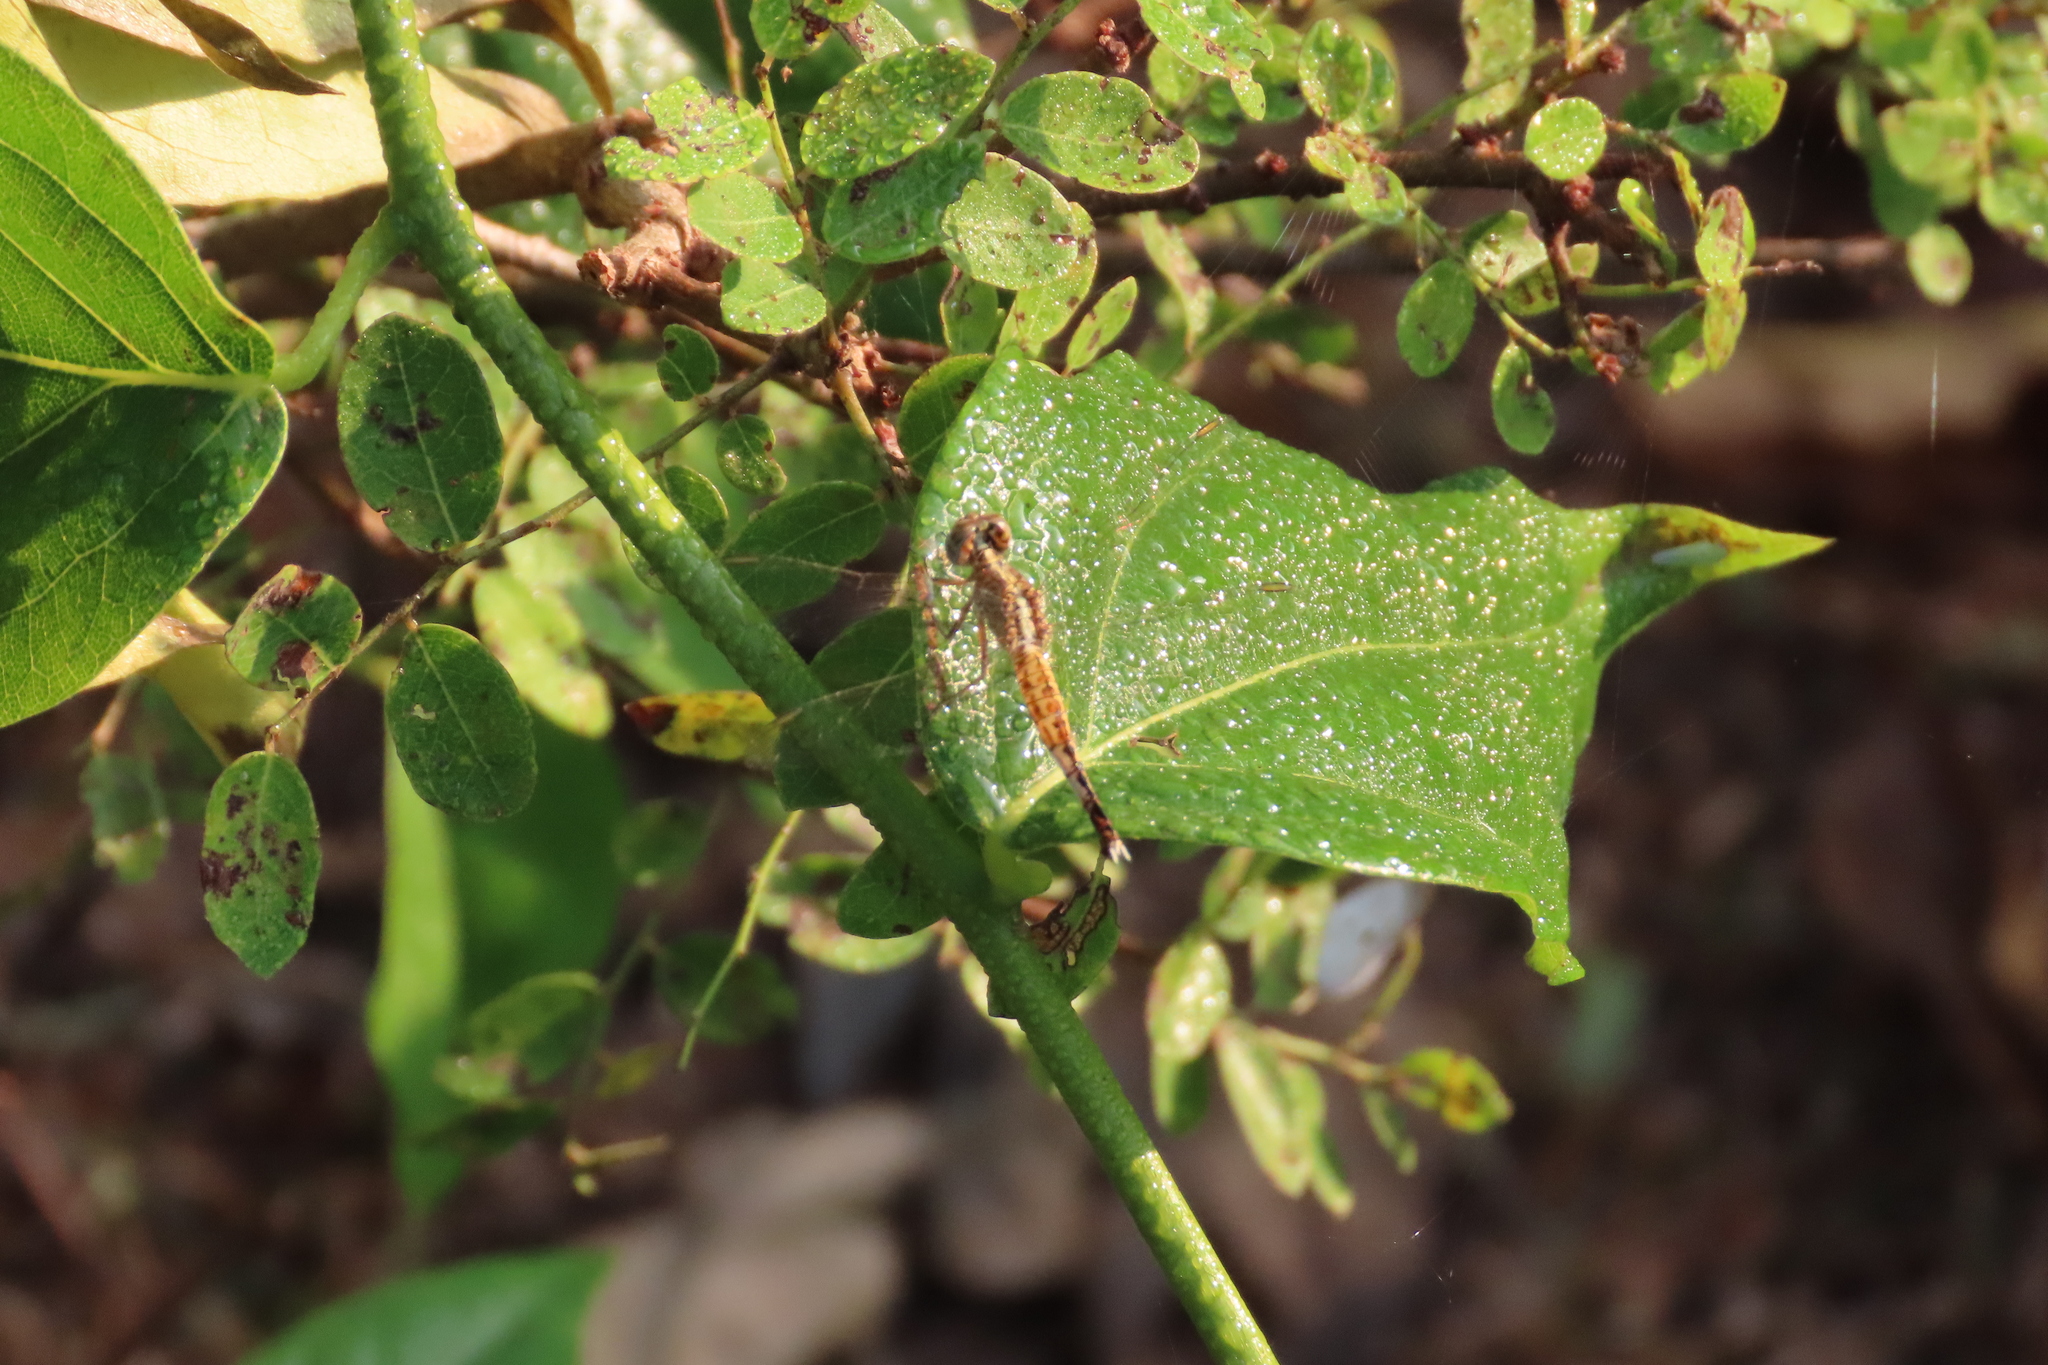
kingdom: Animalia
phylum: Arthropoda
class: Insecta
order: Odonata
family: Libellulidae
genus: Acisoma
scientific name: Acisoma panorpoides
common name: Asian pintail
